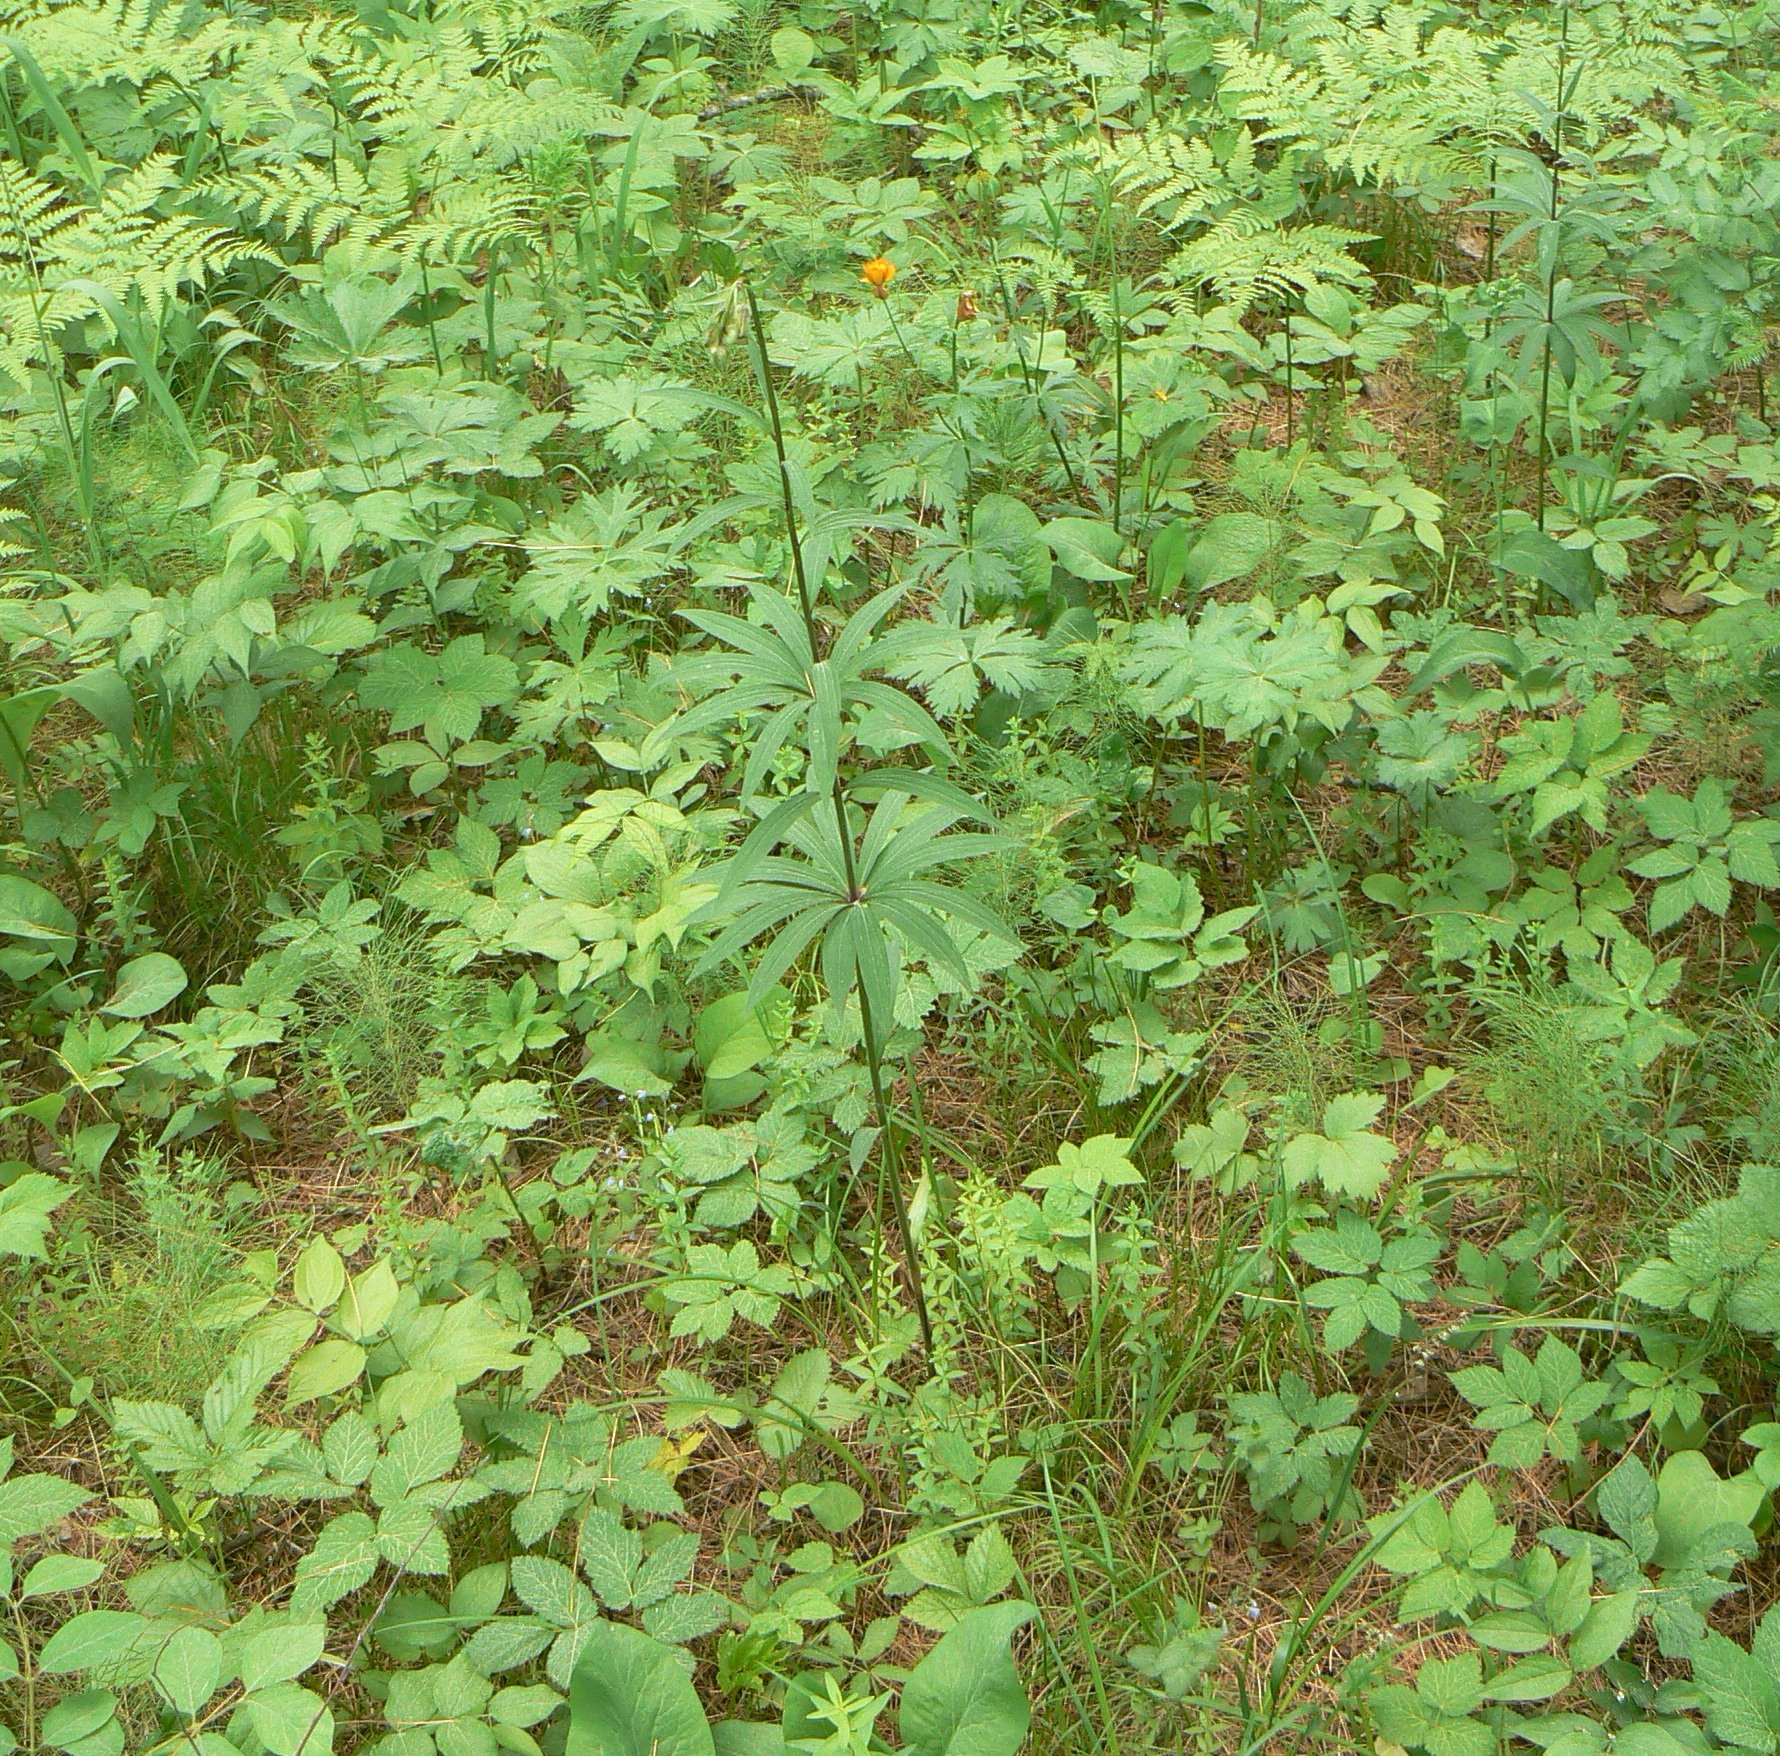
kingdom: Plantae
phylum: Tracheophyta
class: Liliopsida
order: Liliales
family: Liliaceae
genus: Lilium
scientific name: Lilium martagon
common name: Martagon lily
